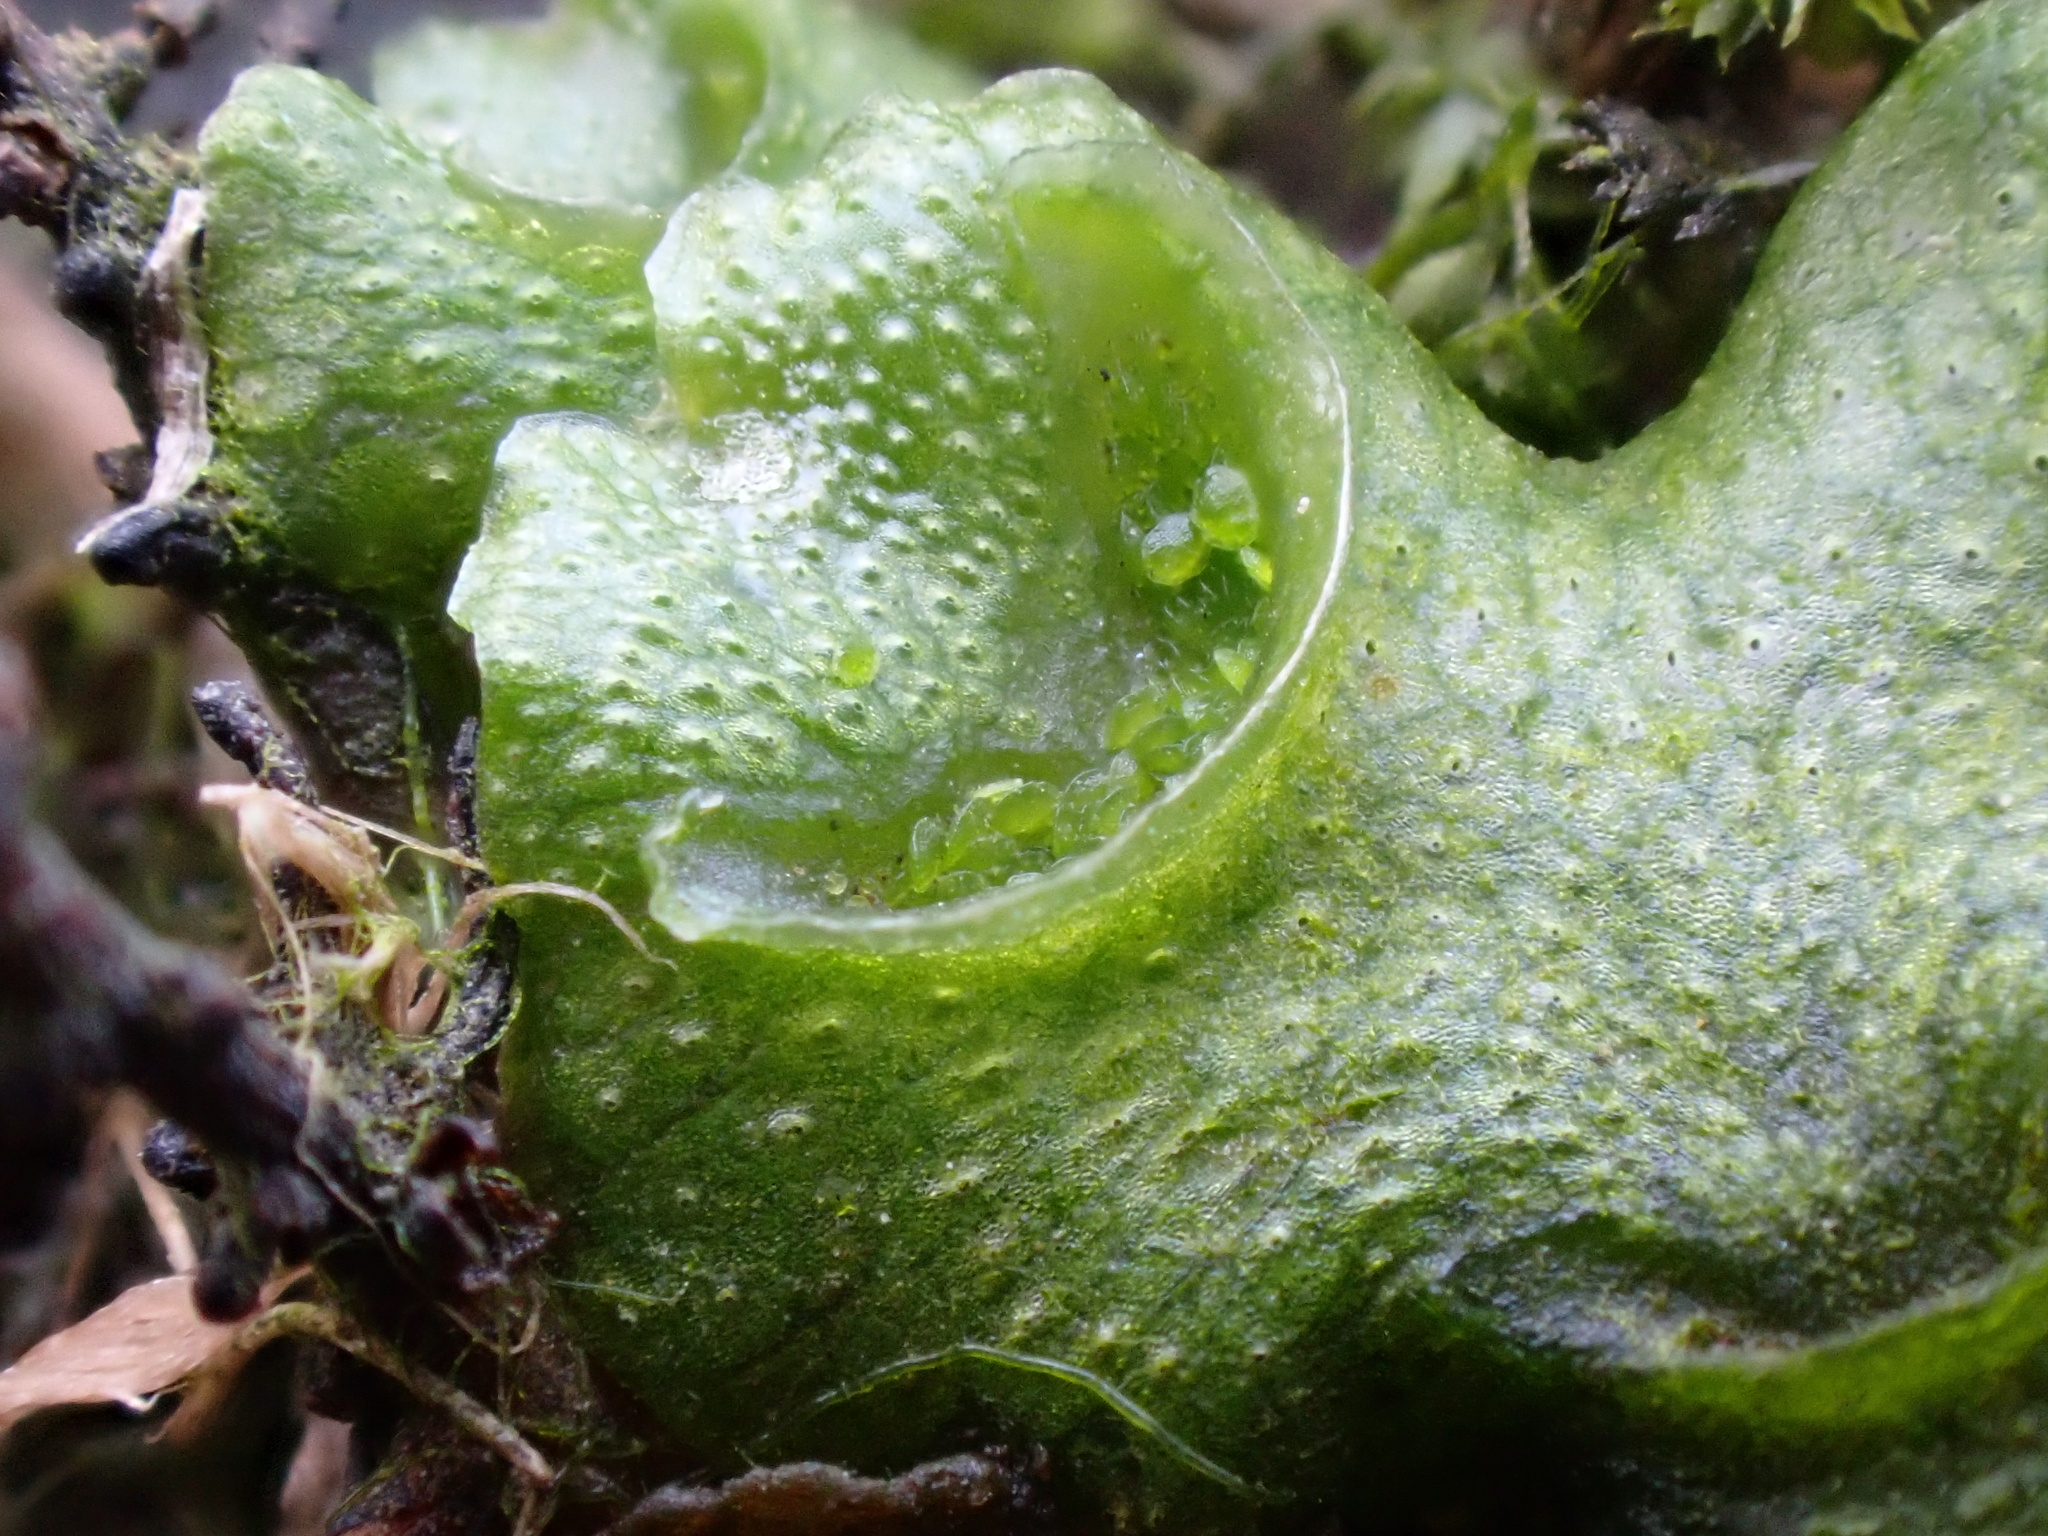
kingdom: Plantae
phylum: Marchantiophyta
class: Marchantiopsida
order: Lunulariales
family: Lunulariaceae
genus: Lunularia
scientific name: Lunularia cruciata
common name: Crescent-cup liverwort
